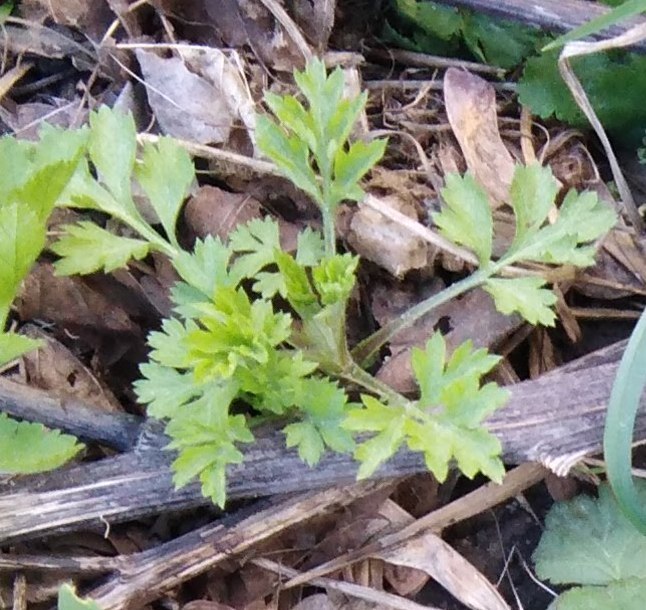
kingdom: Plantae
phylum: Tracheophyta
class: Magnoliopsida
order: Asterales
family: Asteraceae
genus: Artemisia
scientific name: Artemisia vulgaris
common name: Mugwort
